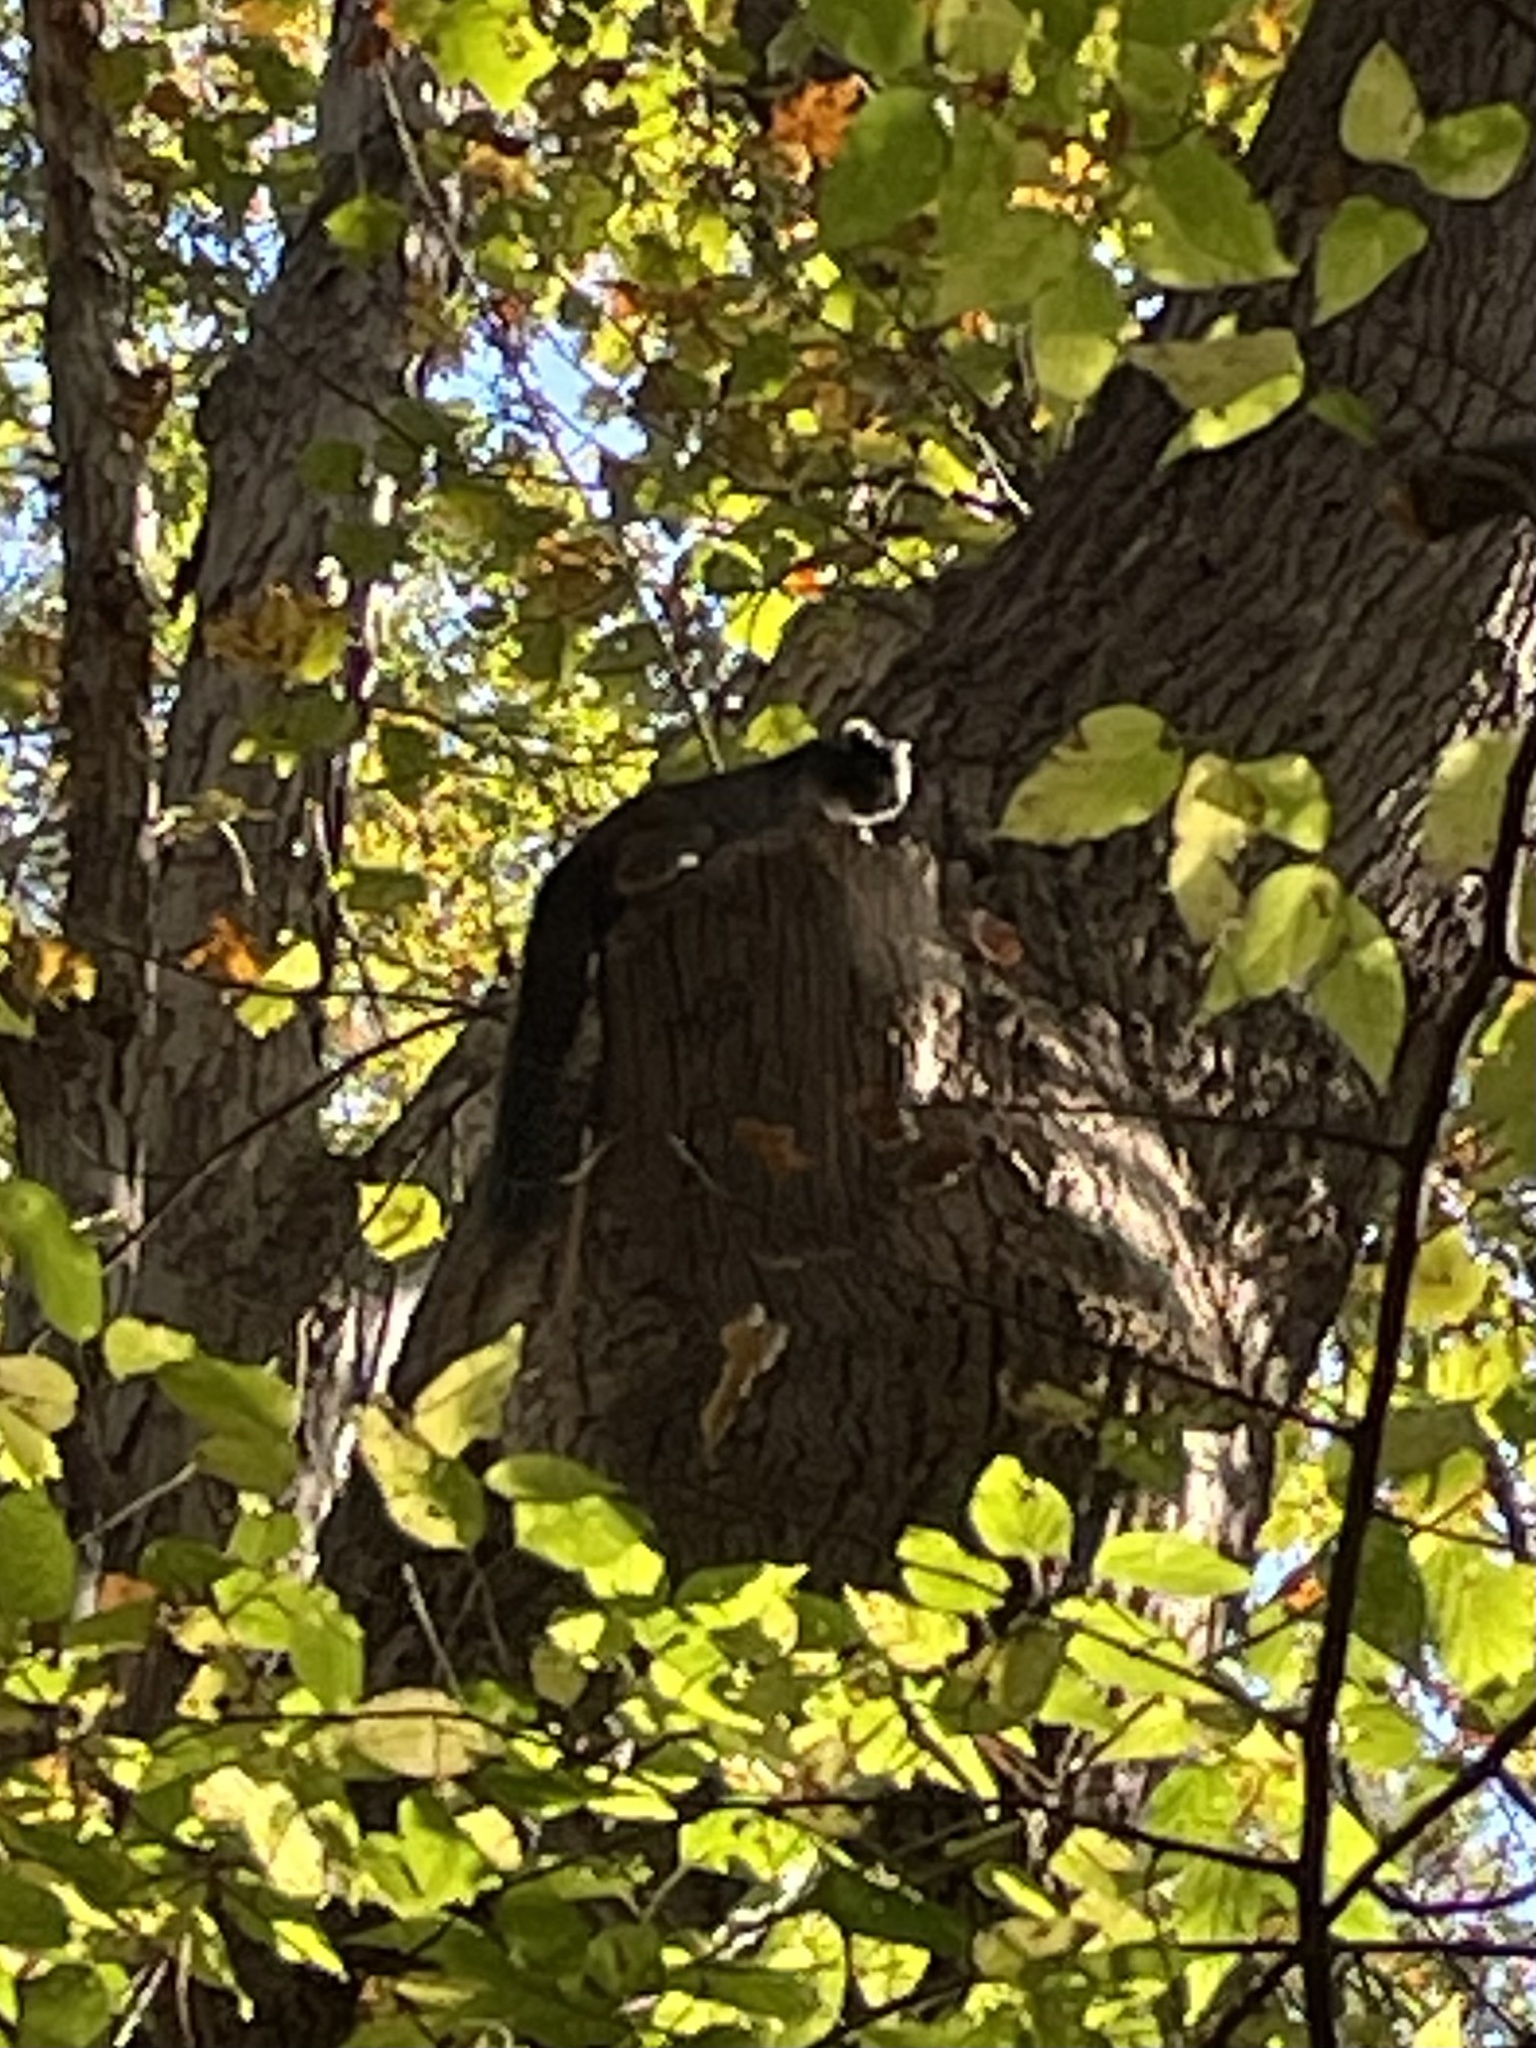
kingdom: Animalia
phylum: Chordata
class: Mammalia
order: Rodentia
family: Sciuridae
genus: Sciurus
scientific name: Sciurus niger
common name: Fox squirrel
